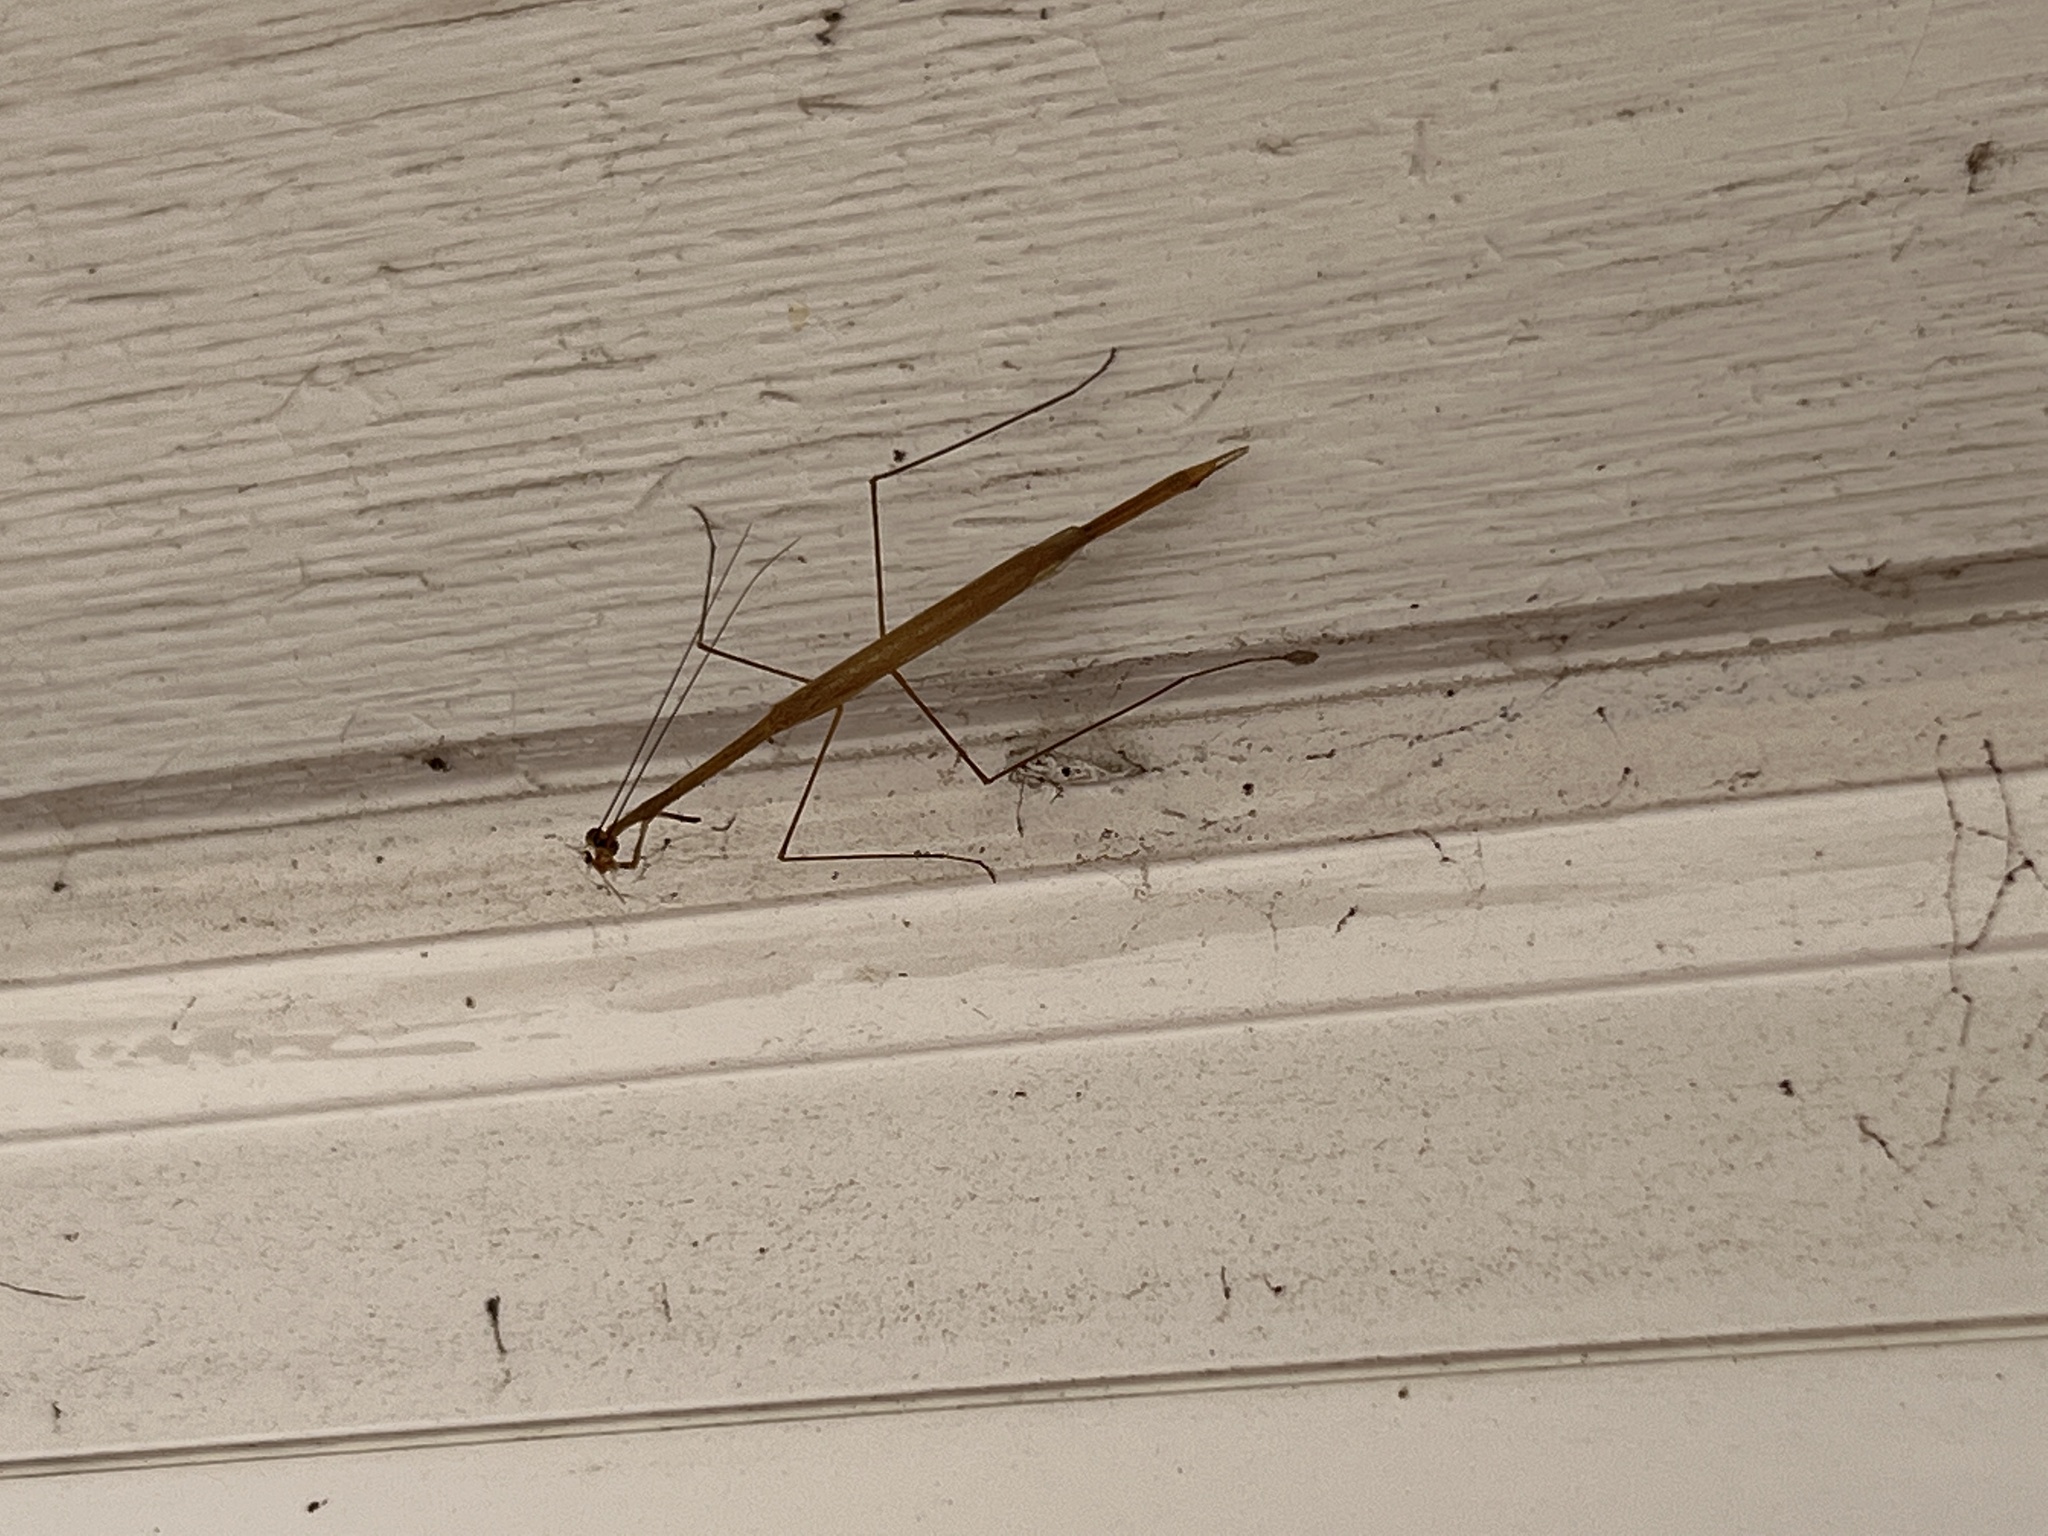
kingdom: Animalia
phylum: Arthropoda
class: Insecta
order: Mantodea
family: Thespidae
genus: Thesprotia
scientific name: Thesprotia graminis
